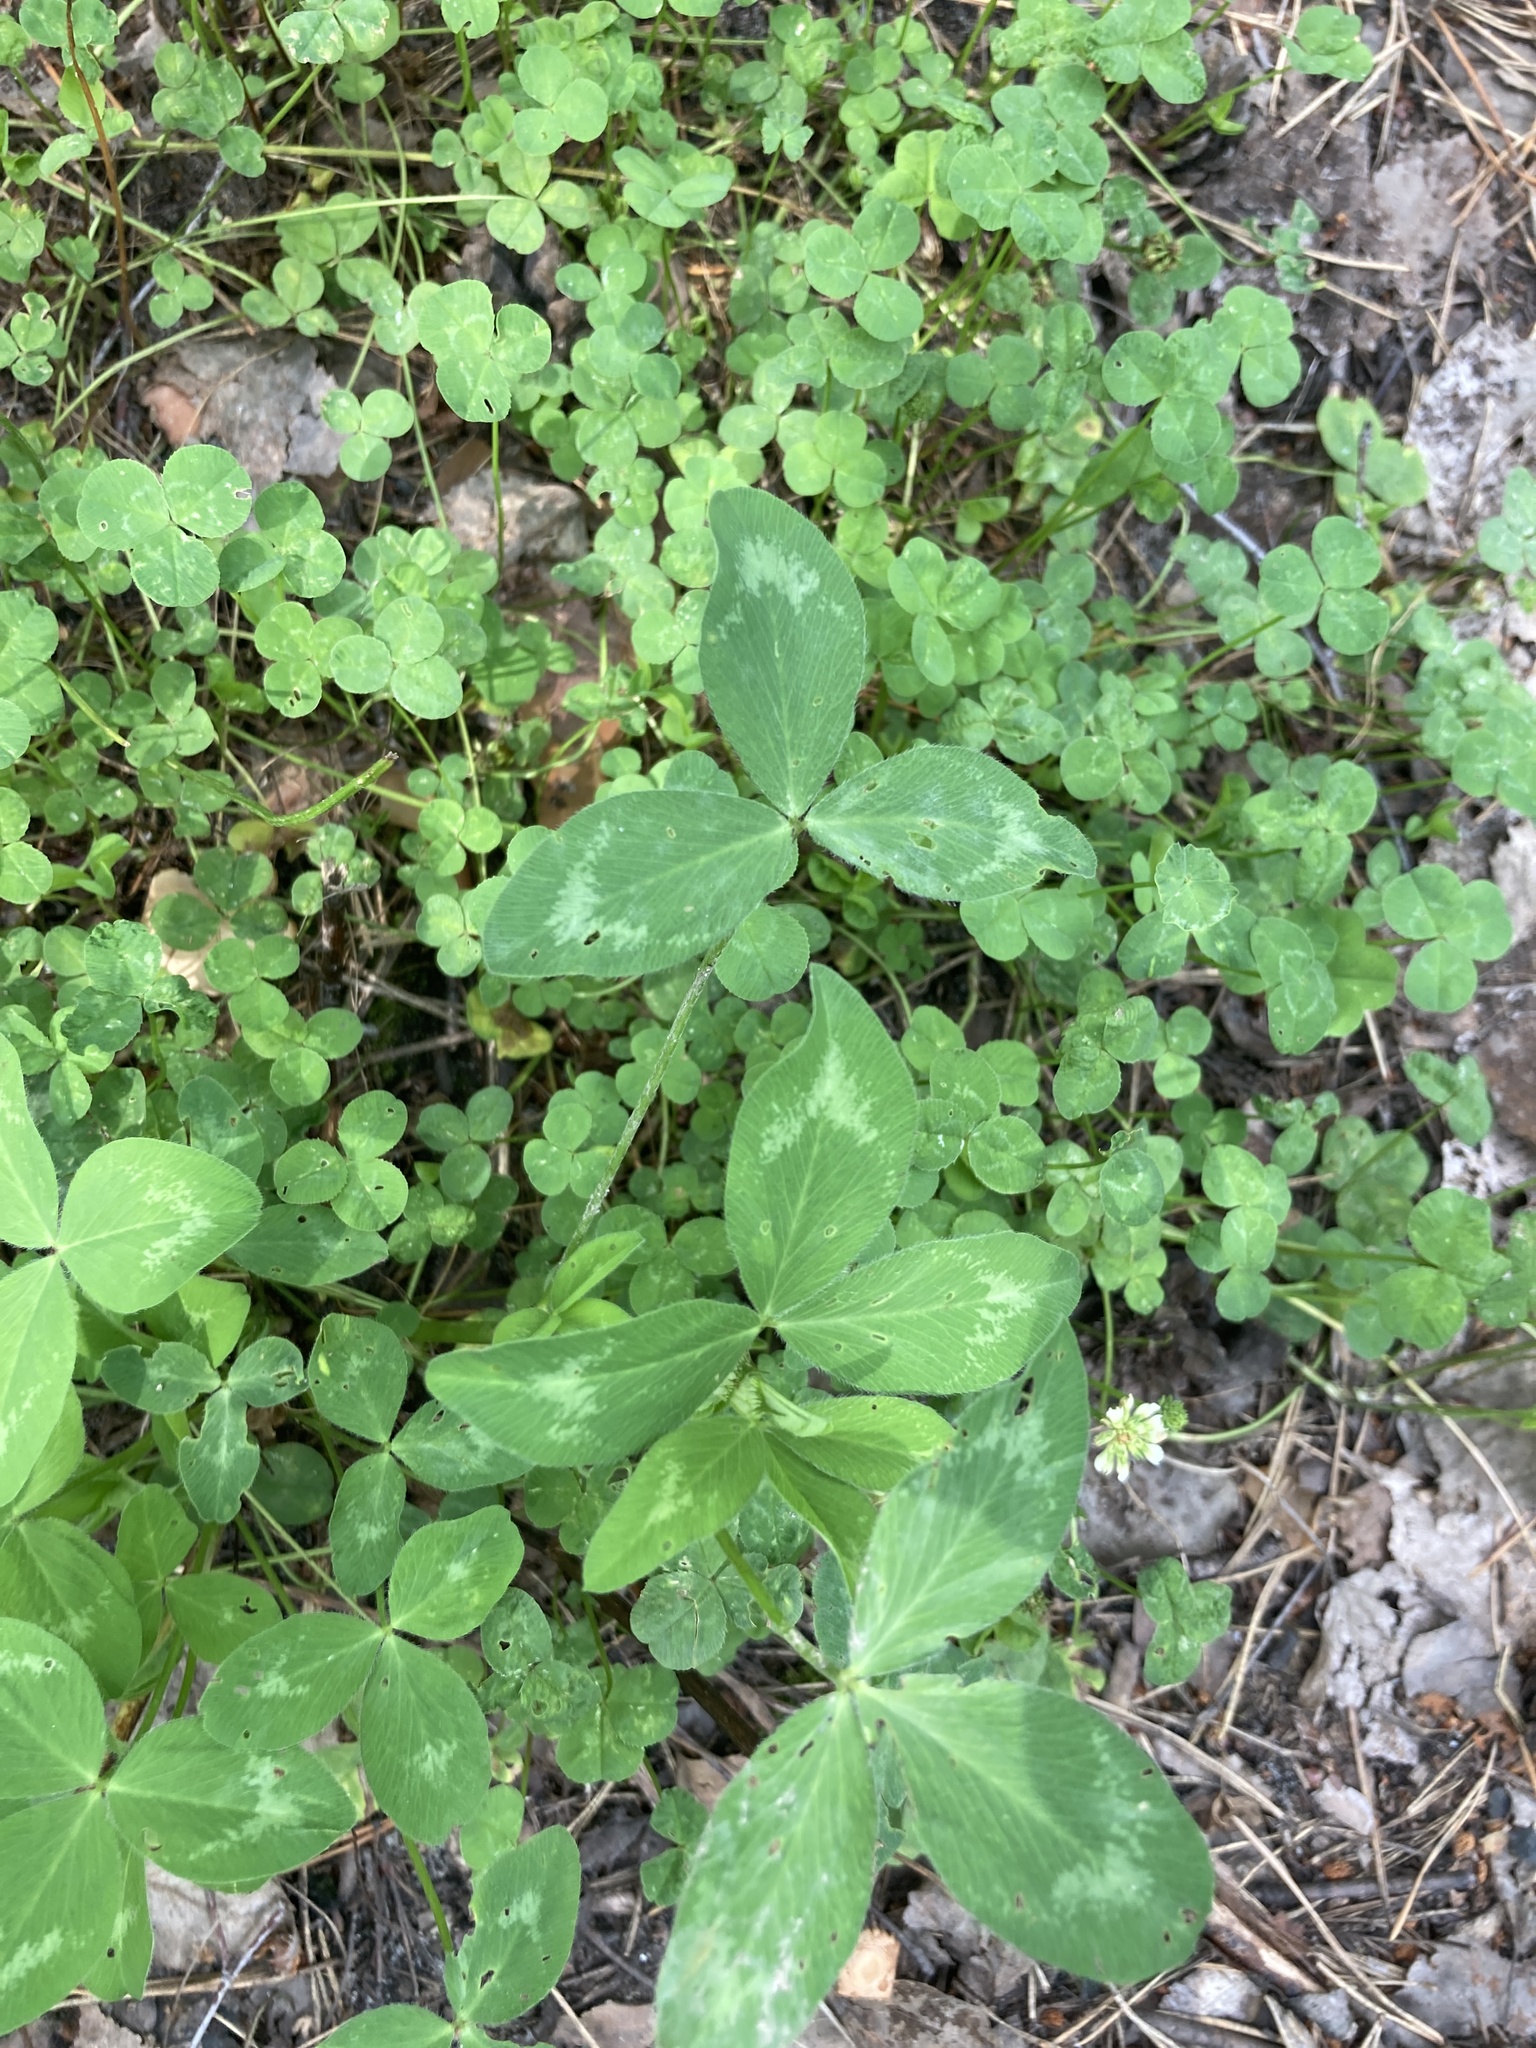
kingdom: Plantae
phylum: Tracheophyta
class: Magnoliopsida
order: Fabales
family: Fabaceae
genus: Trifolium
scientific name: Trifolium pratense
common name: Red clover
